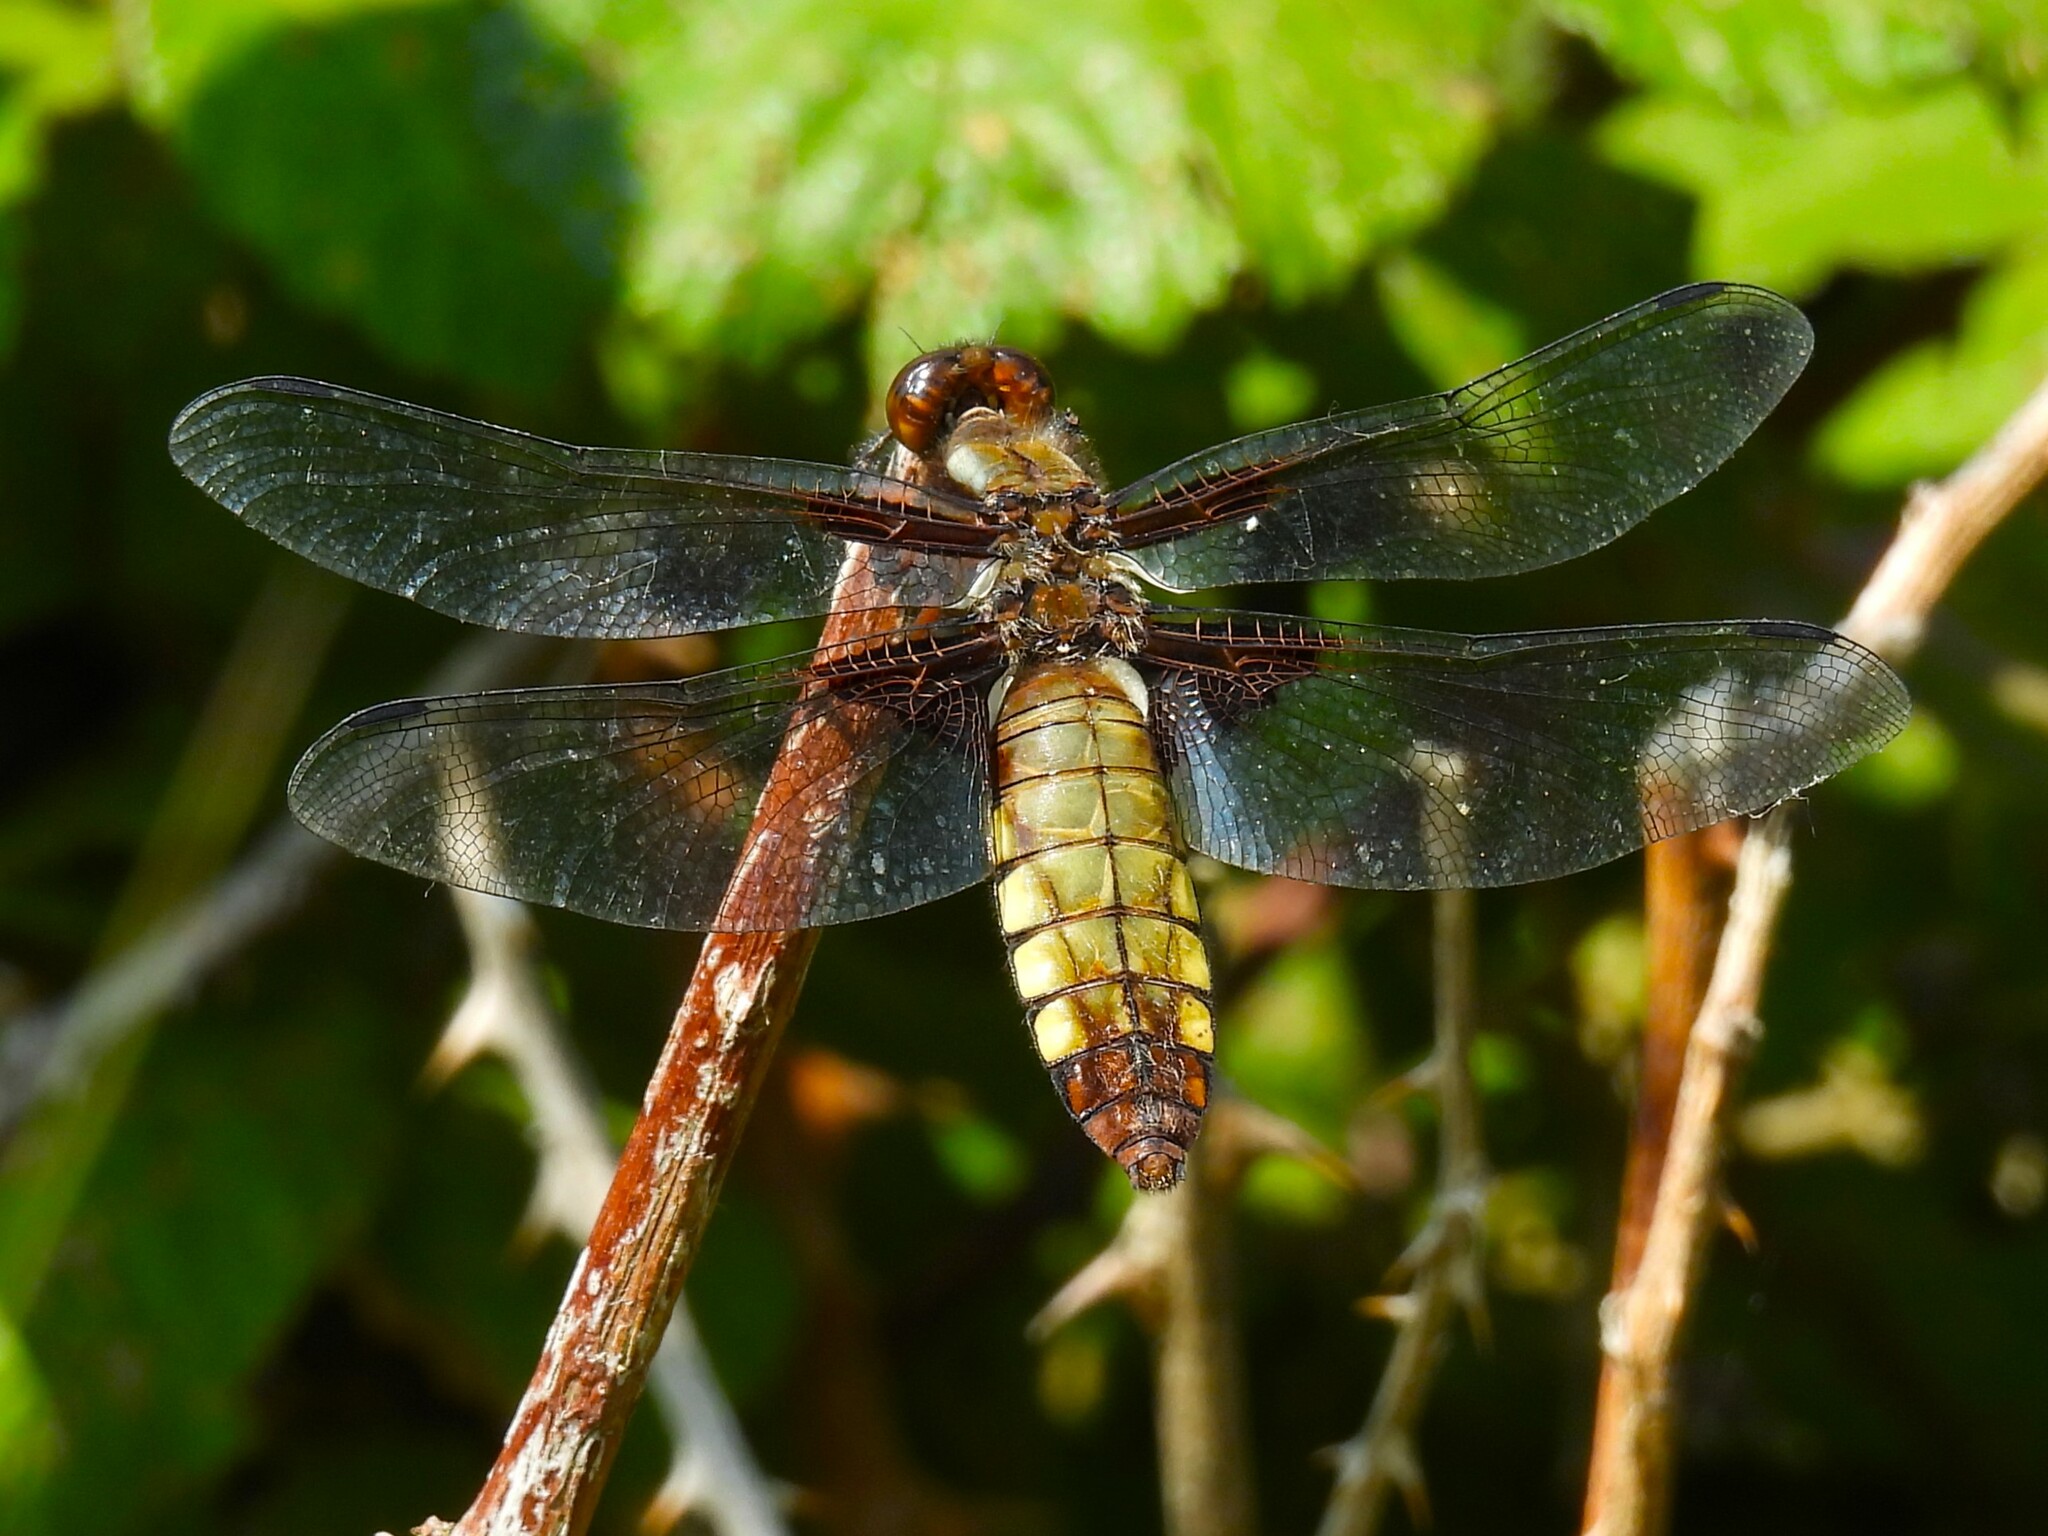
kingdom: Animalia
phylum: Arthropoda
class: Insecta
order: Odonata
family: Libellulidae
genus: Libellula
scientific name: Libellula depressa
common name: Broad-bodied chaser
